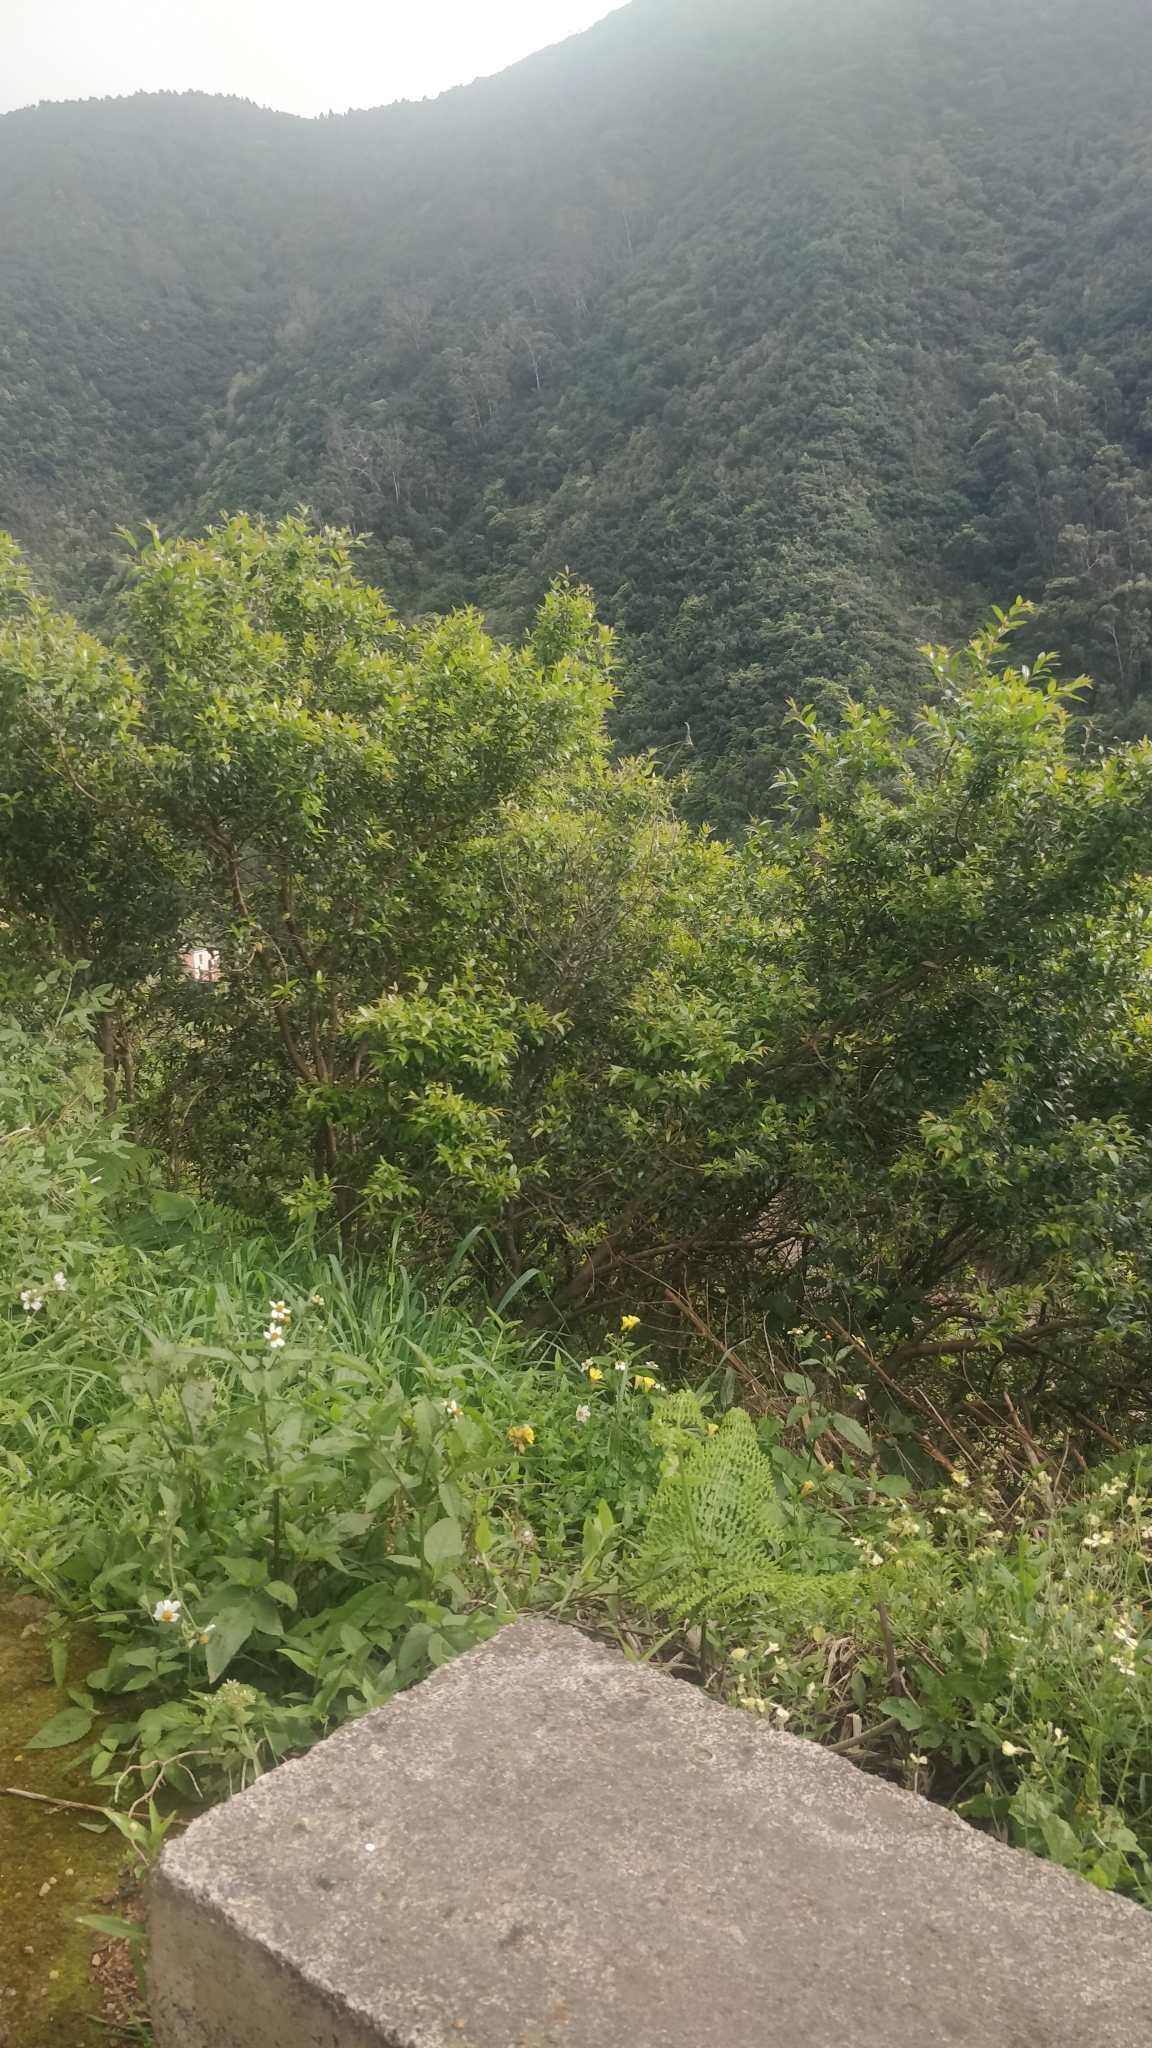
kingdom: Plantae
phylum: Tracheophyta
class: Magnoliopsida
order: Myrtales
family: Myrtaceae
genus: Myrtus
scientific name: Myrtus communis
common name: Myrtle
